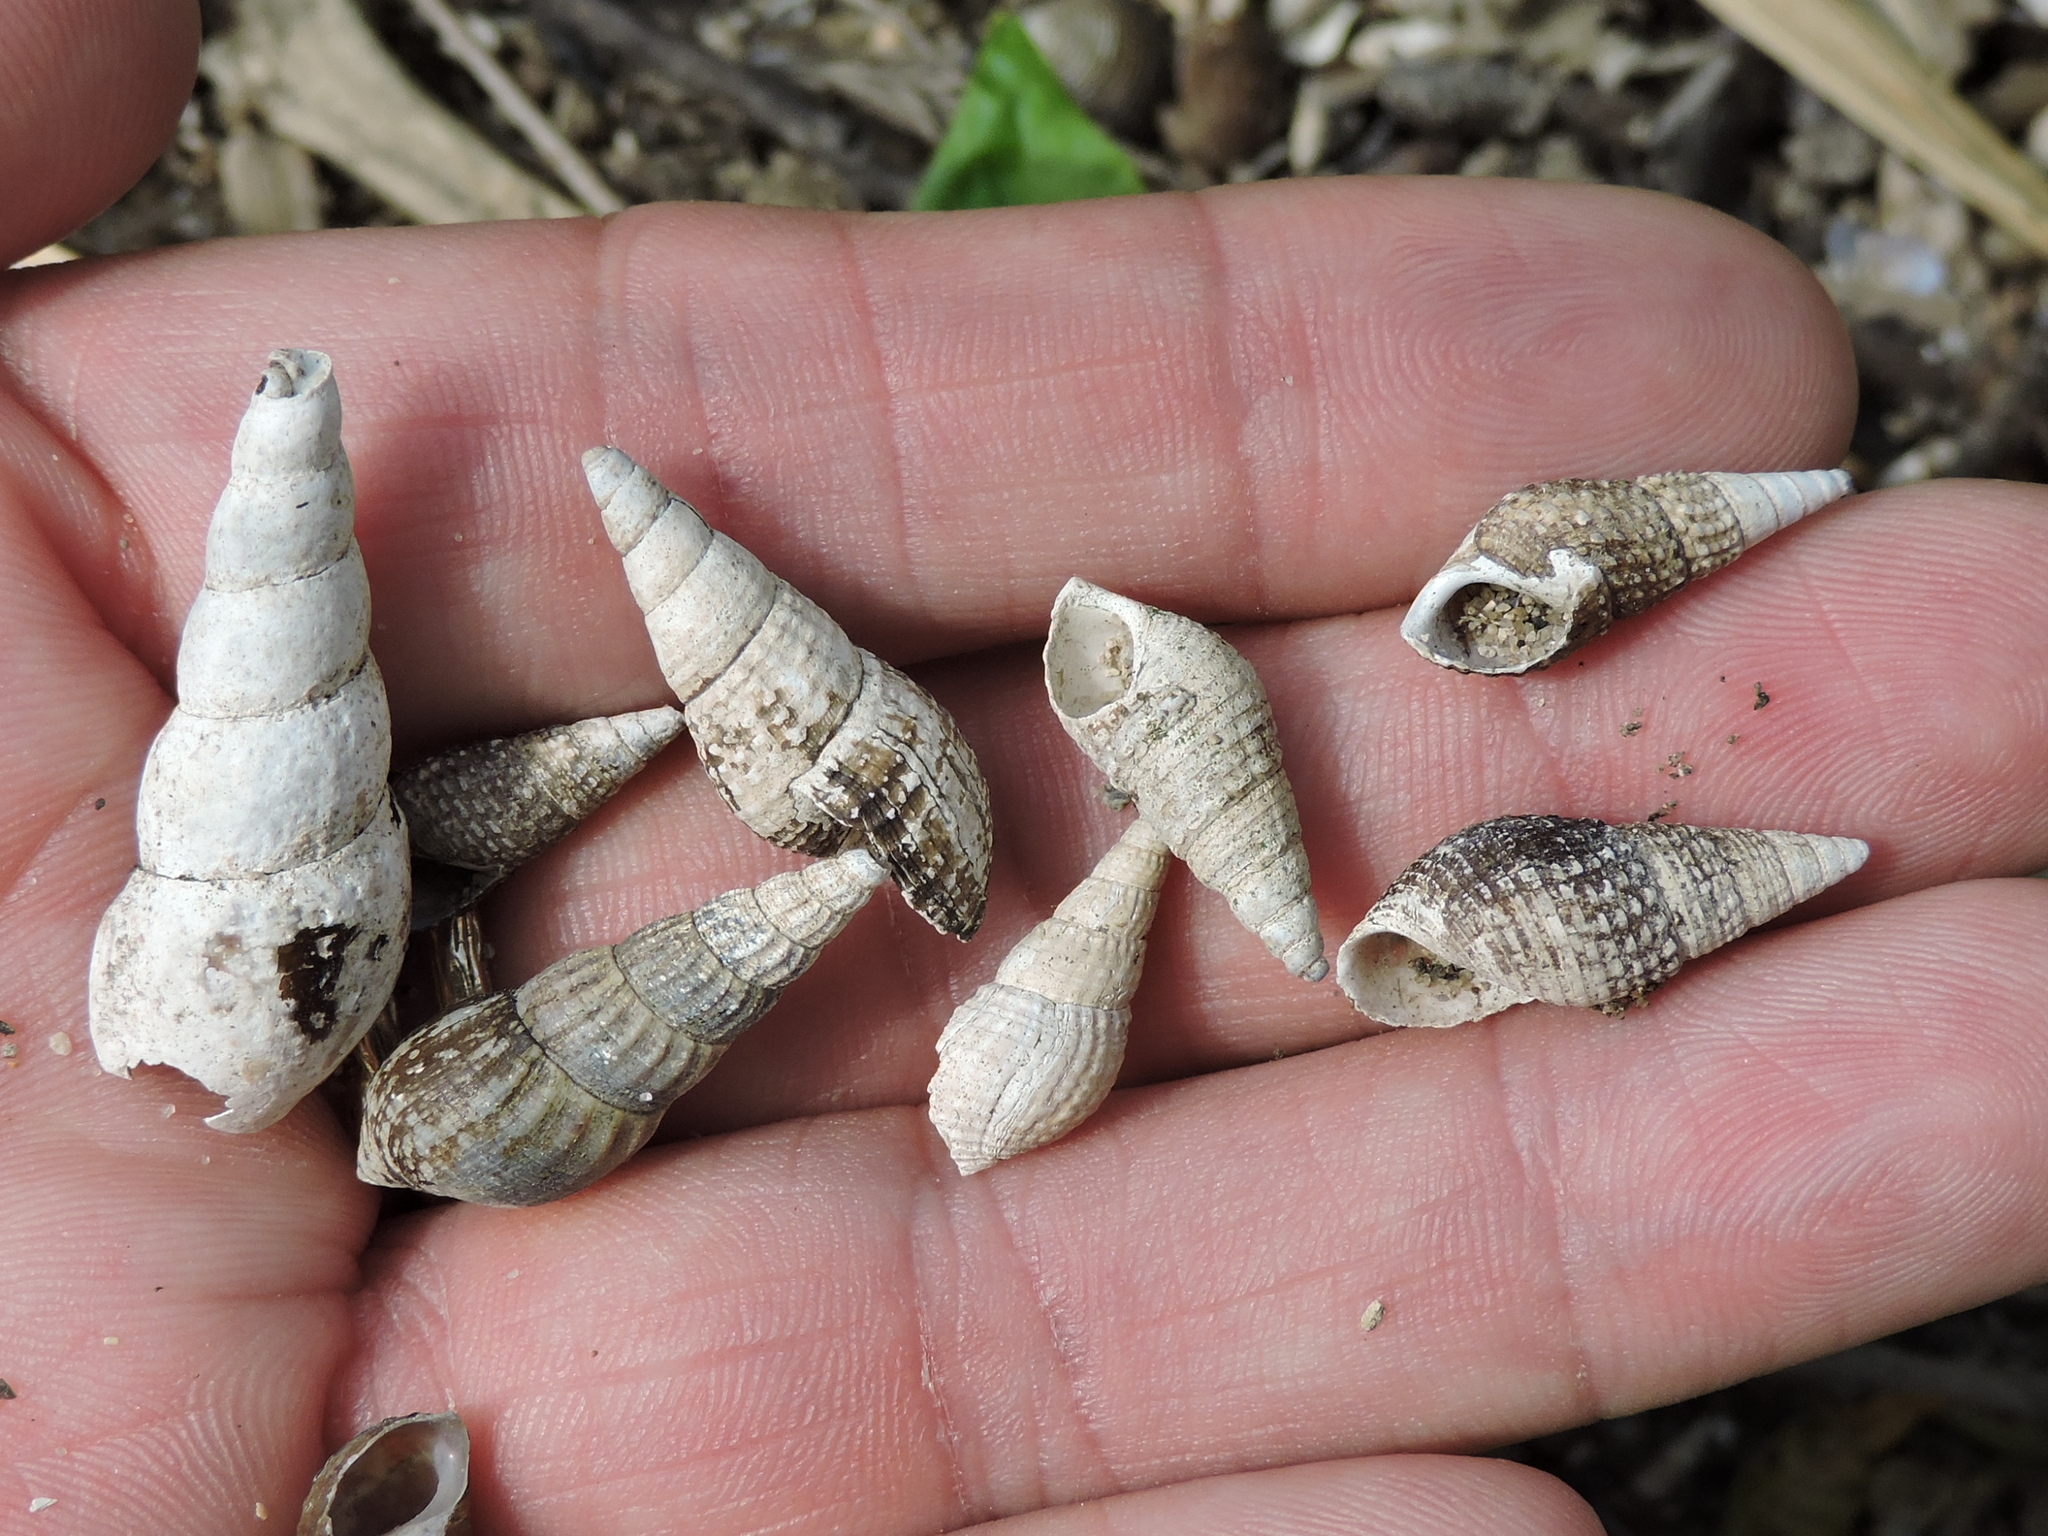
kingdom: Animalia
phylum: Mollusca
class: Gastropoda
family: Thiaridae
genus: Tarebia
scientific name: Tarebia granifera
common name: Quilted melania
